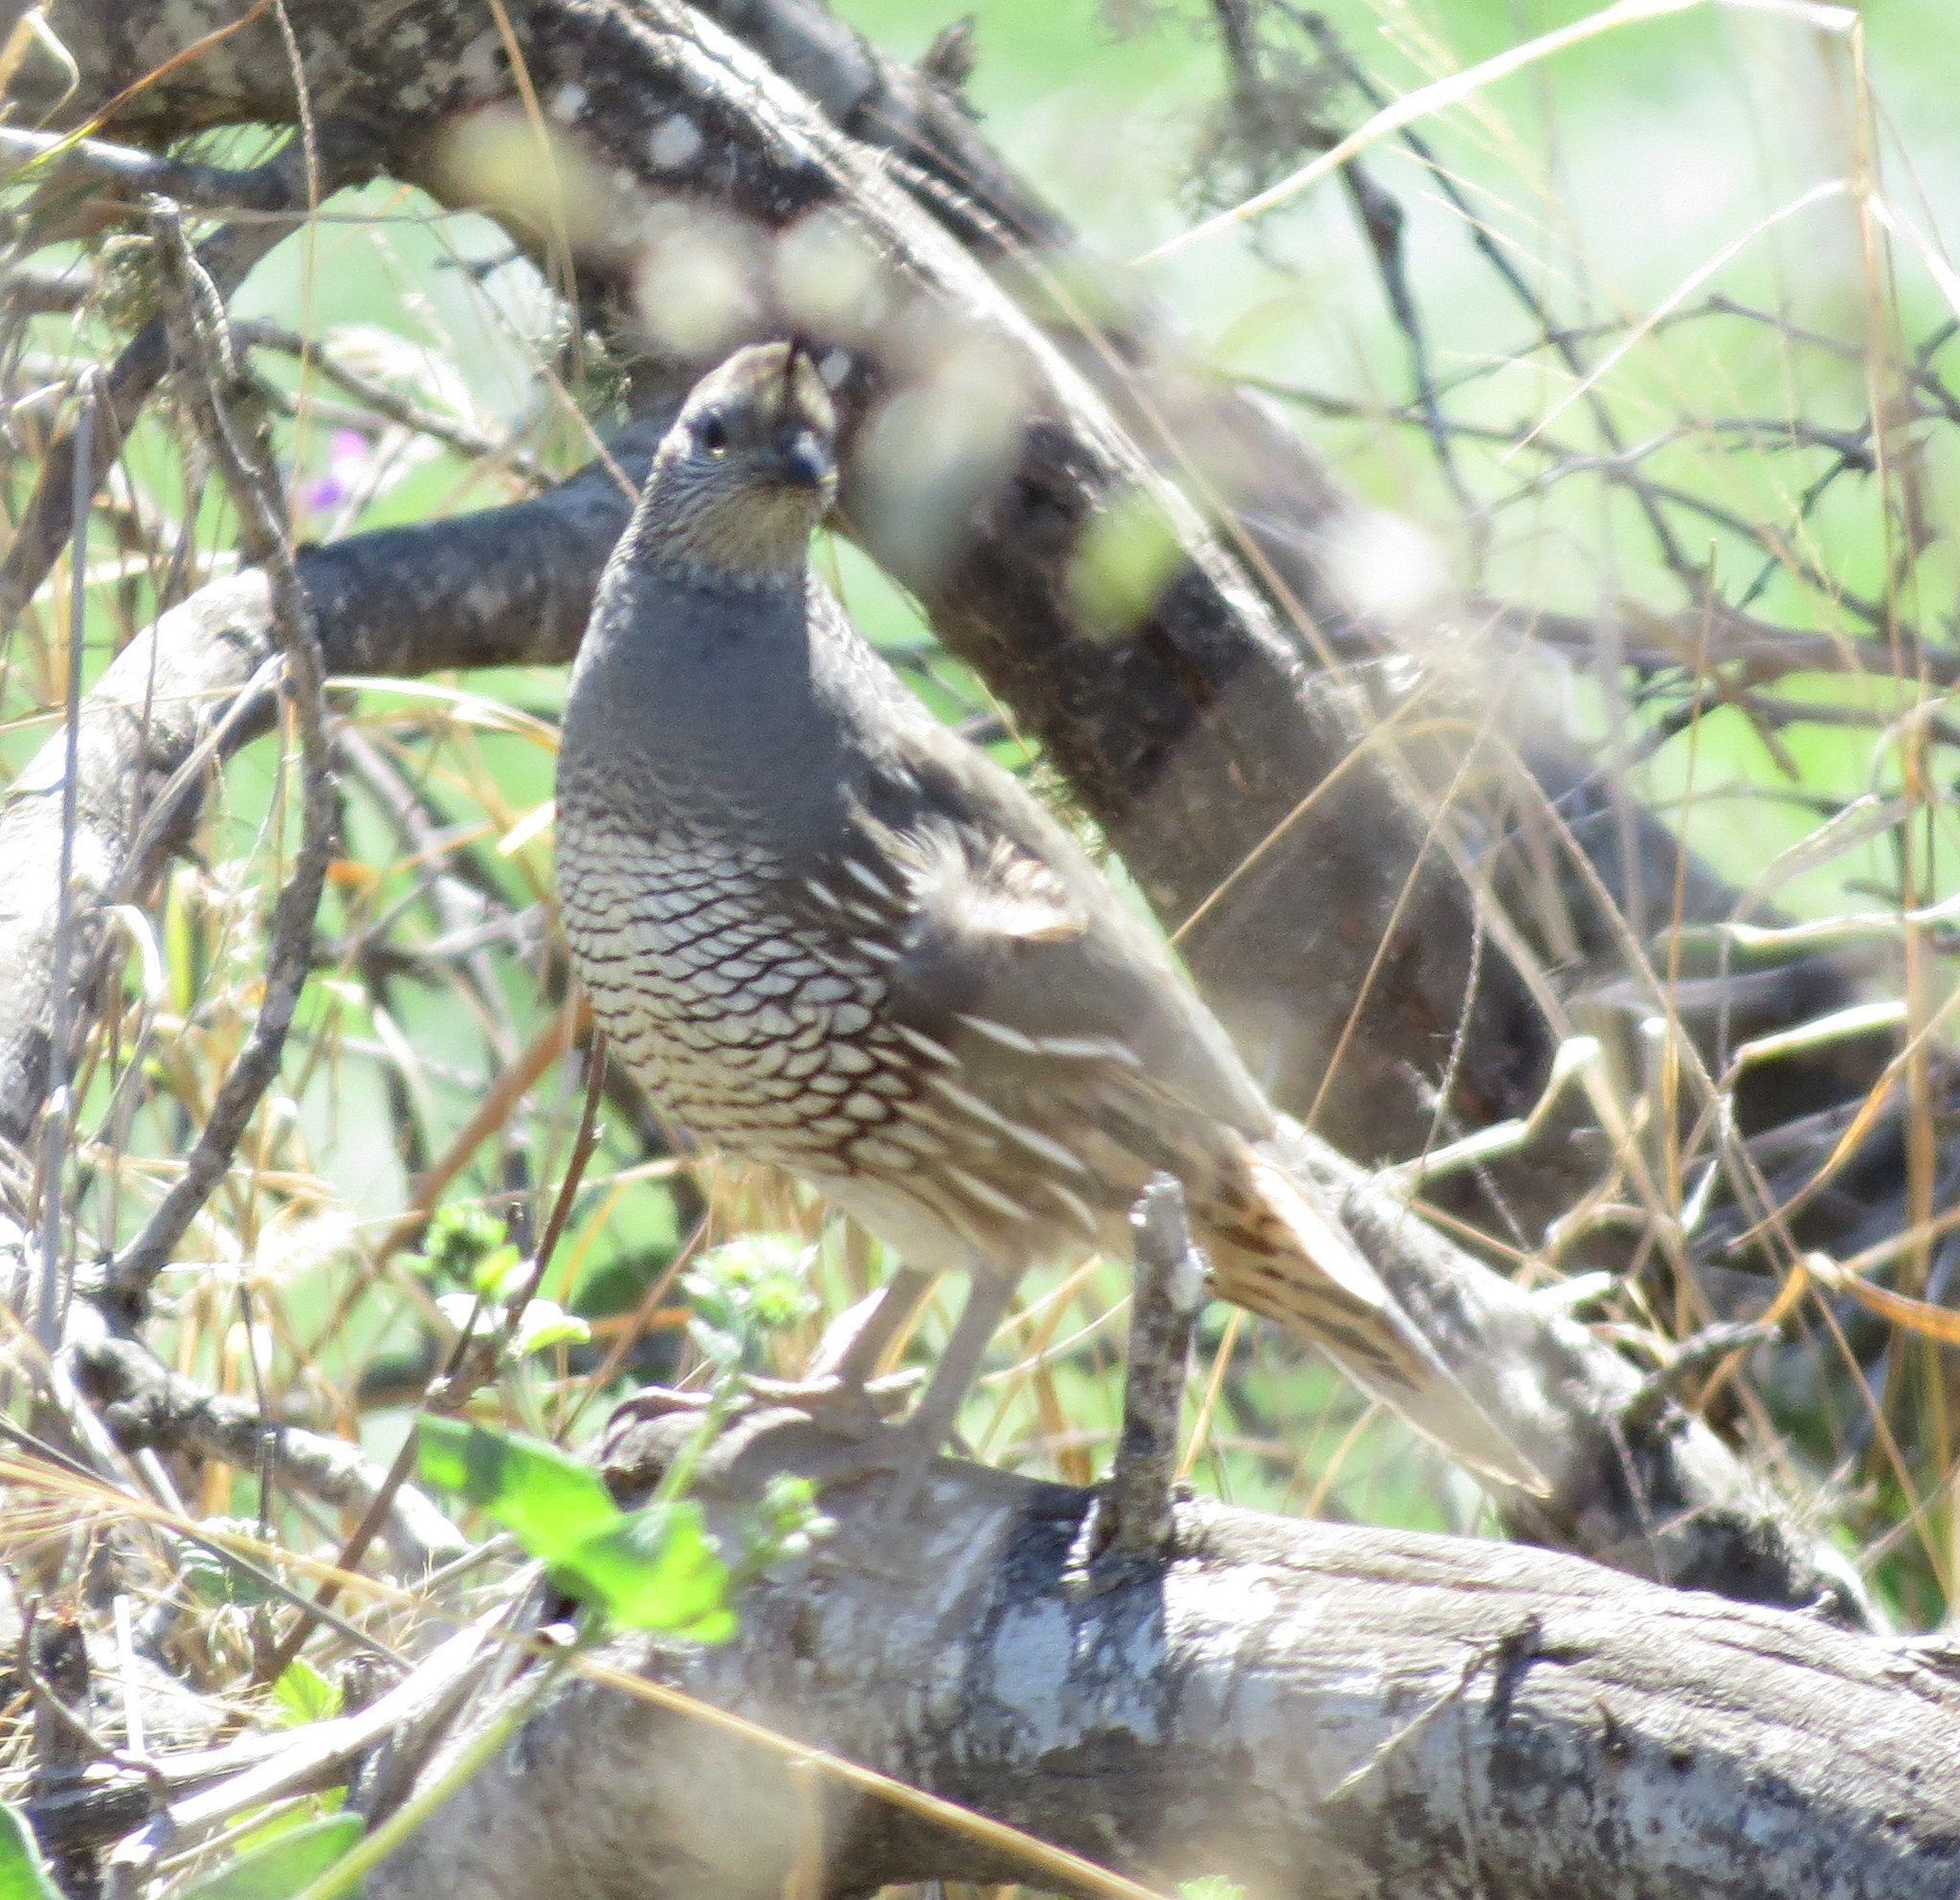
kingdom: Animalia
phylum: Chordata
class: Aves
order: Galliformes
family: Odontophoridae
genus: Callipepla
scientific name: Callipepla californica
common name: California quail
